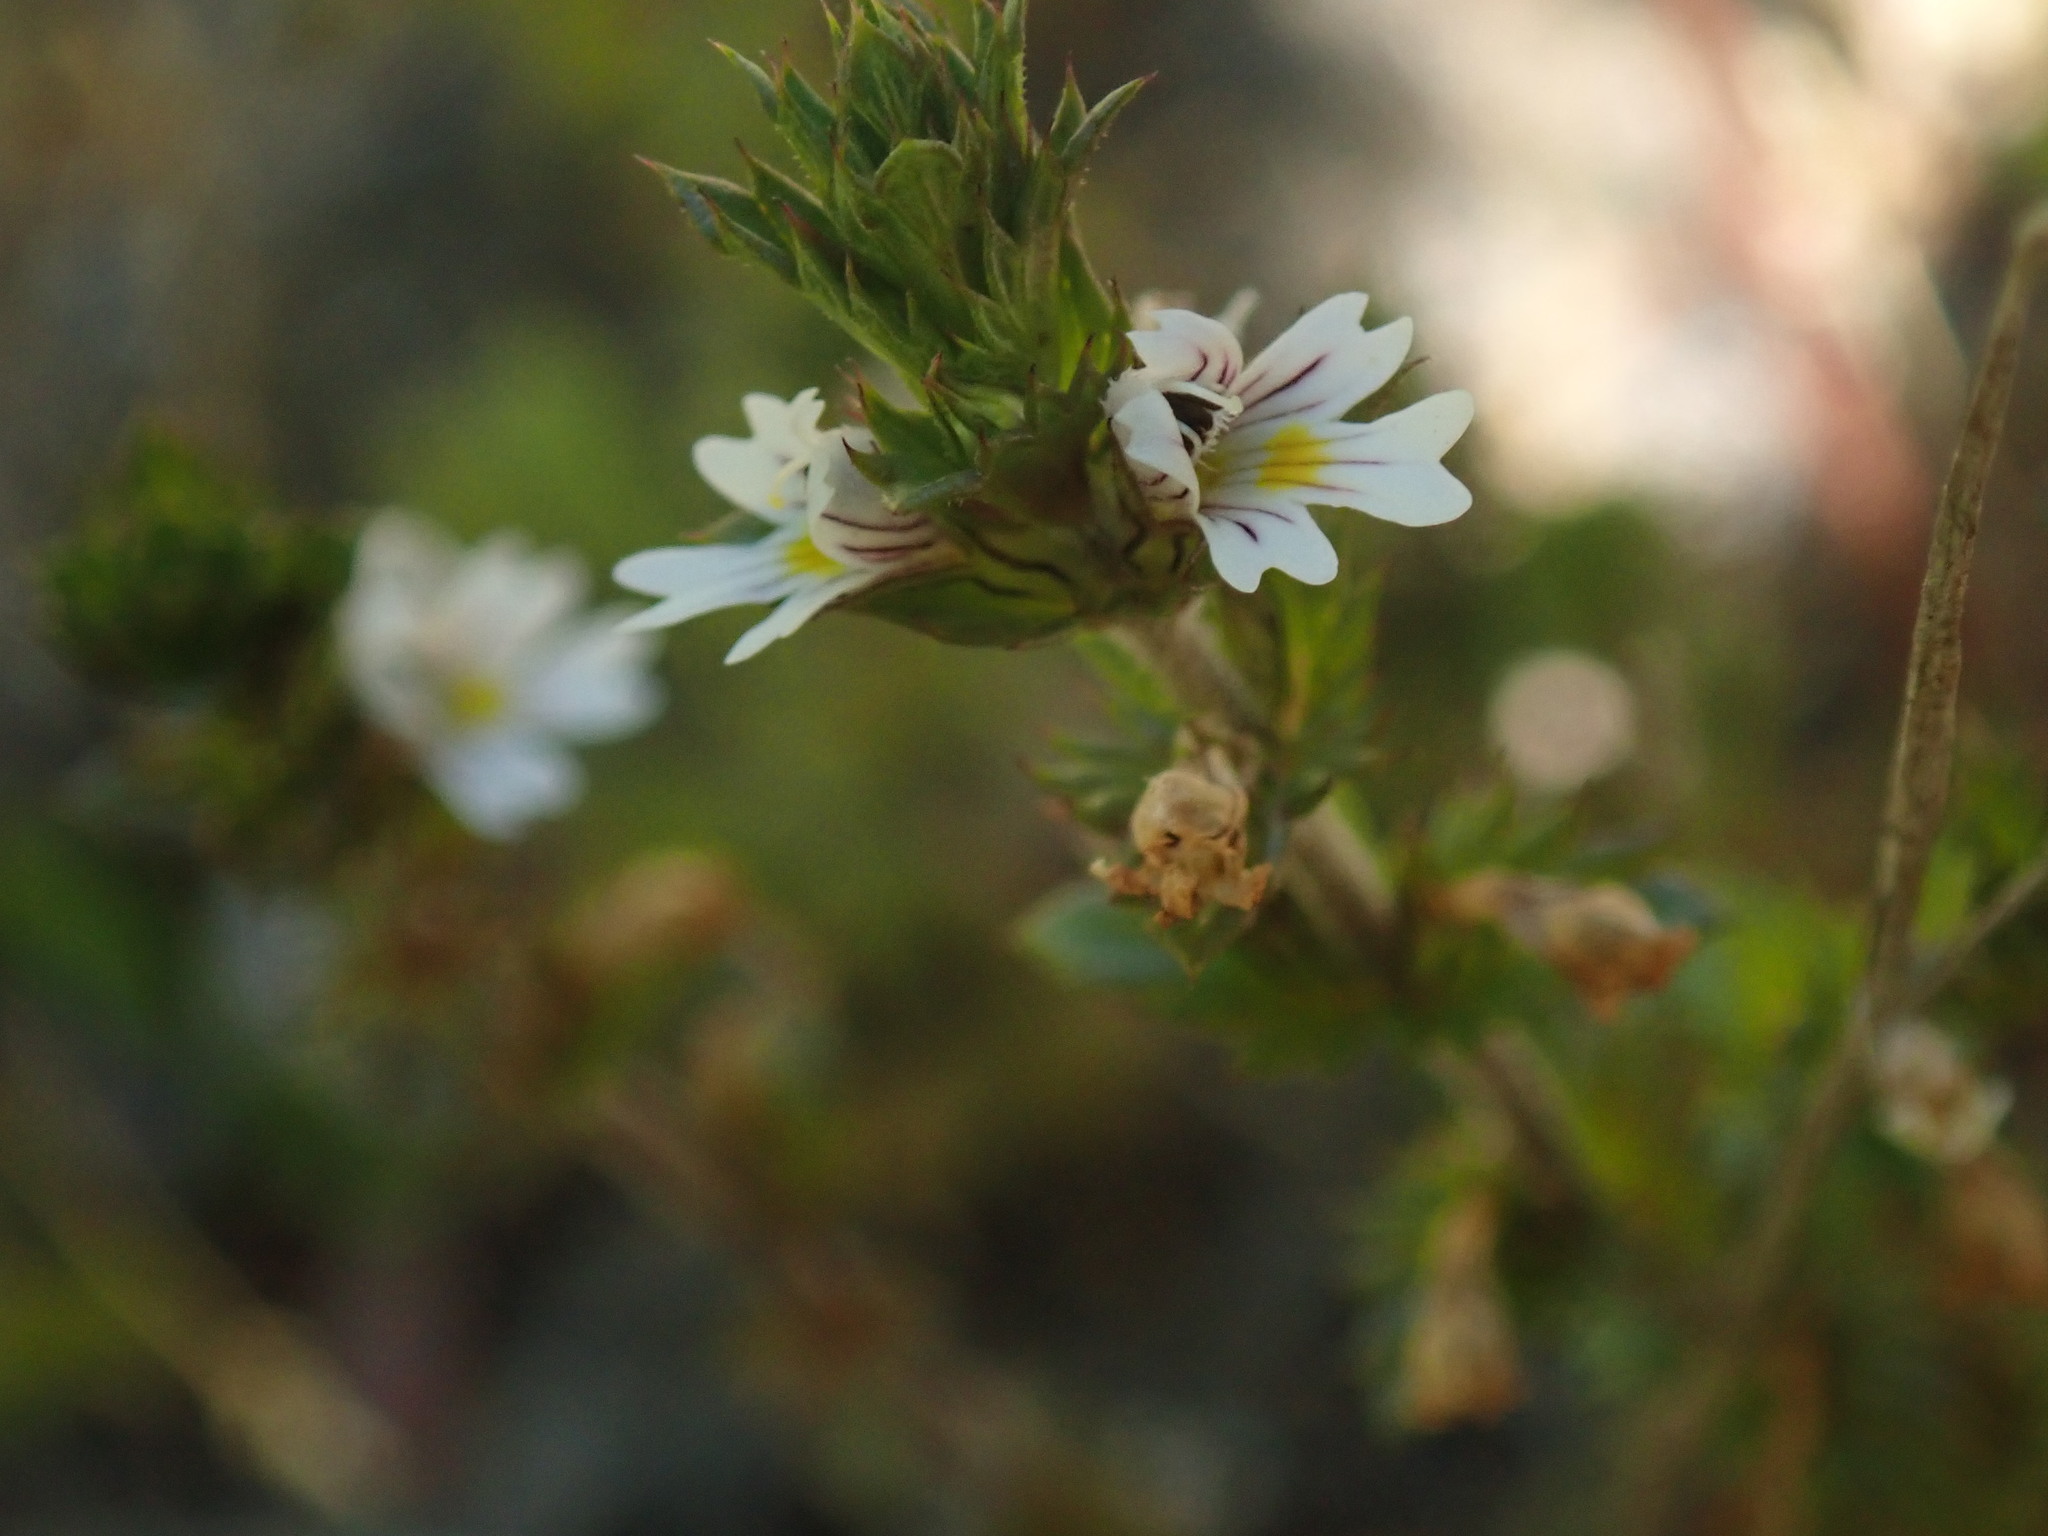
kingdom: Plantae
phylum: Tracheophyta
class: Magnoliopsida
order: Lamiales
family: Orobanchaceae
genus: Euphrasia
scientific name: Euphrasia nemorosa
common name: Common eyebright
